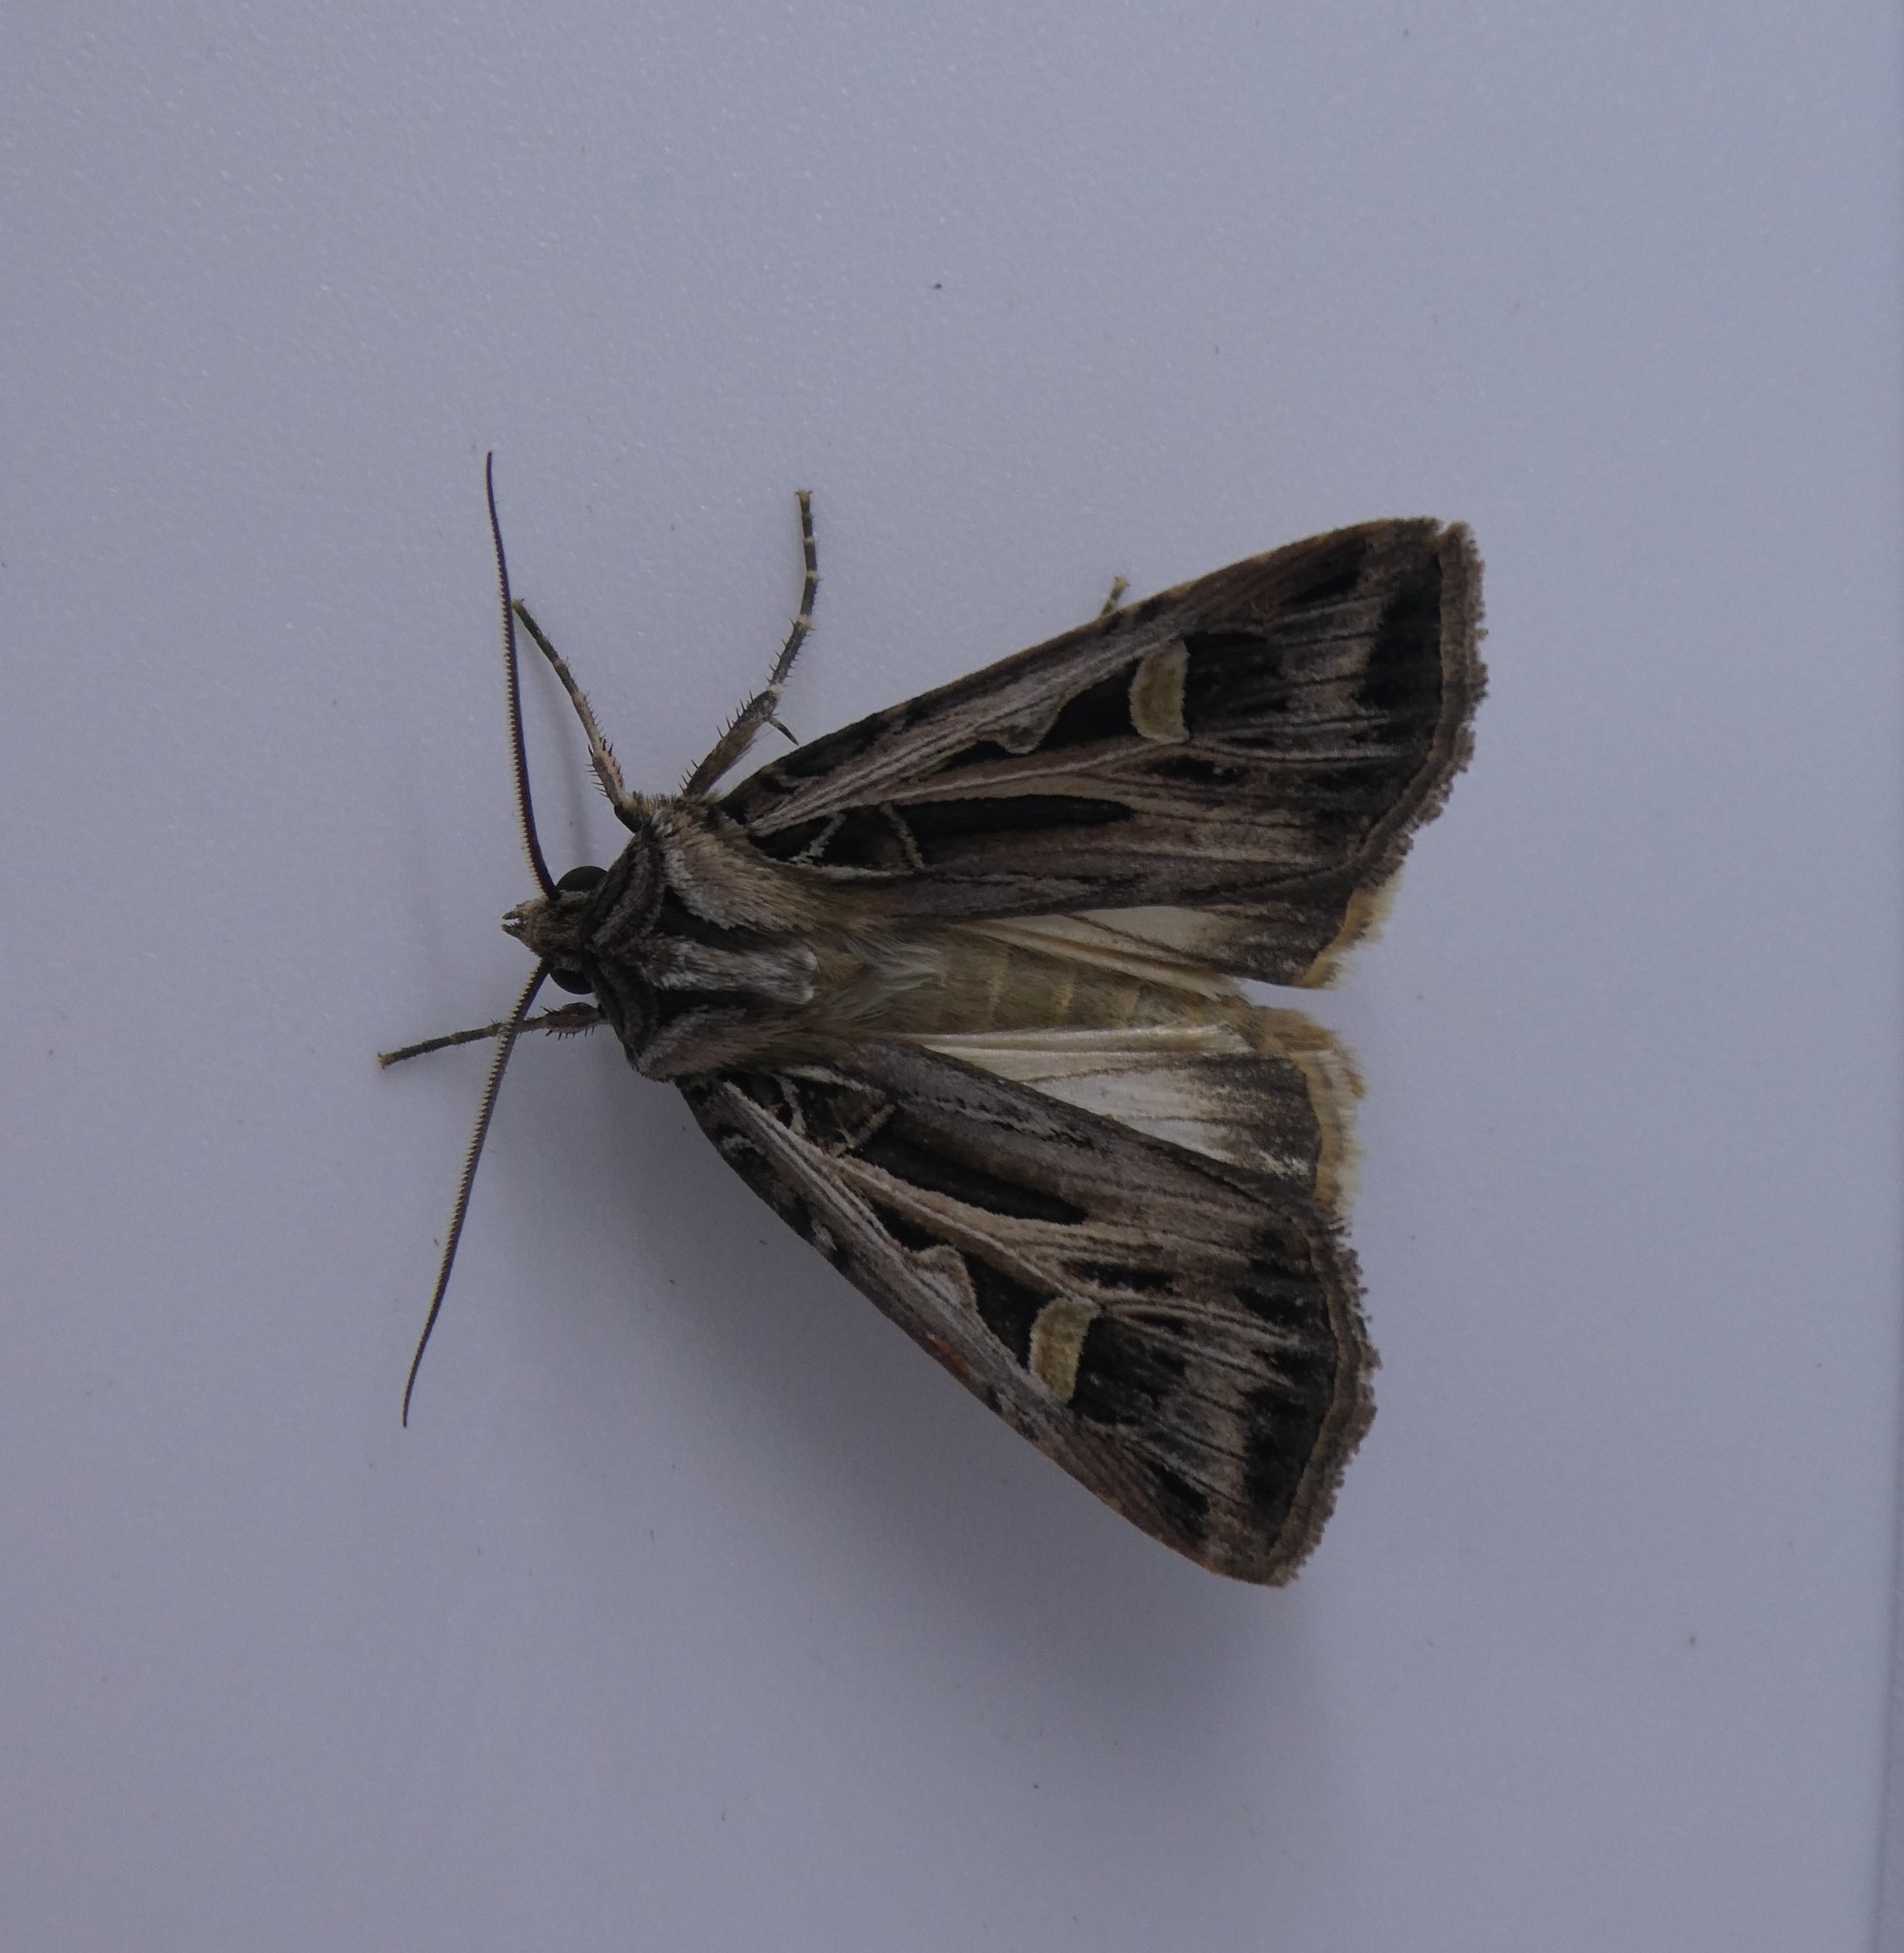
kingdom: Animalia
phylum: Arthropoda
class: Insecta
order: Lepidoptera
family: Noctuidae
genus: Feltia
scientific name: Feltia jaculifera
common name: Dingy cutworm moth
